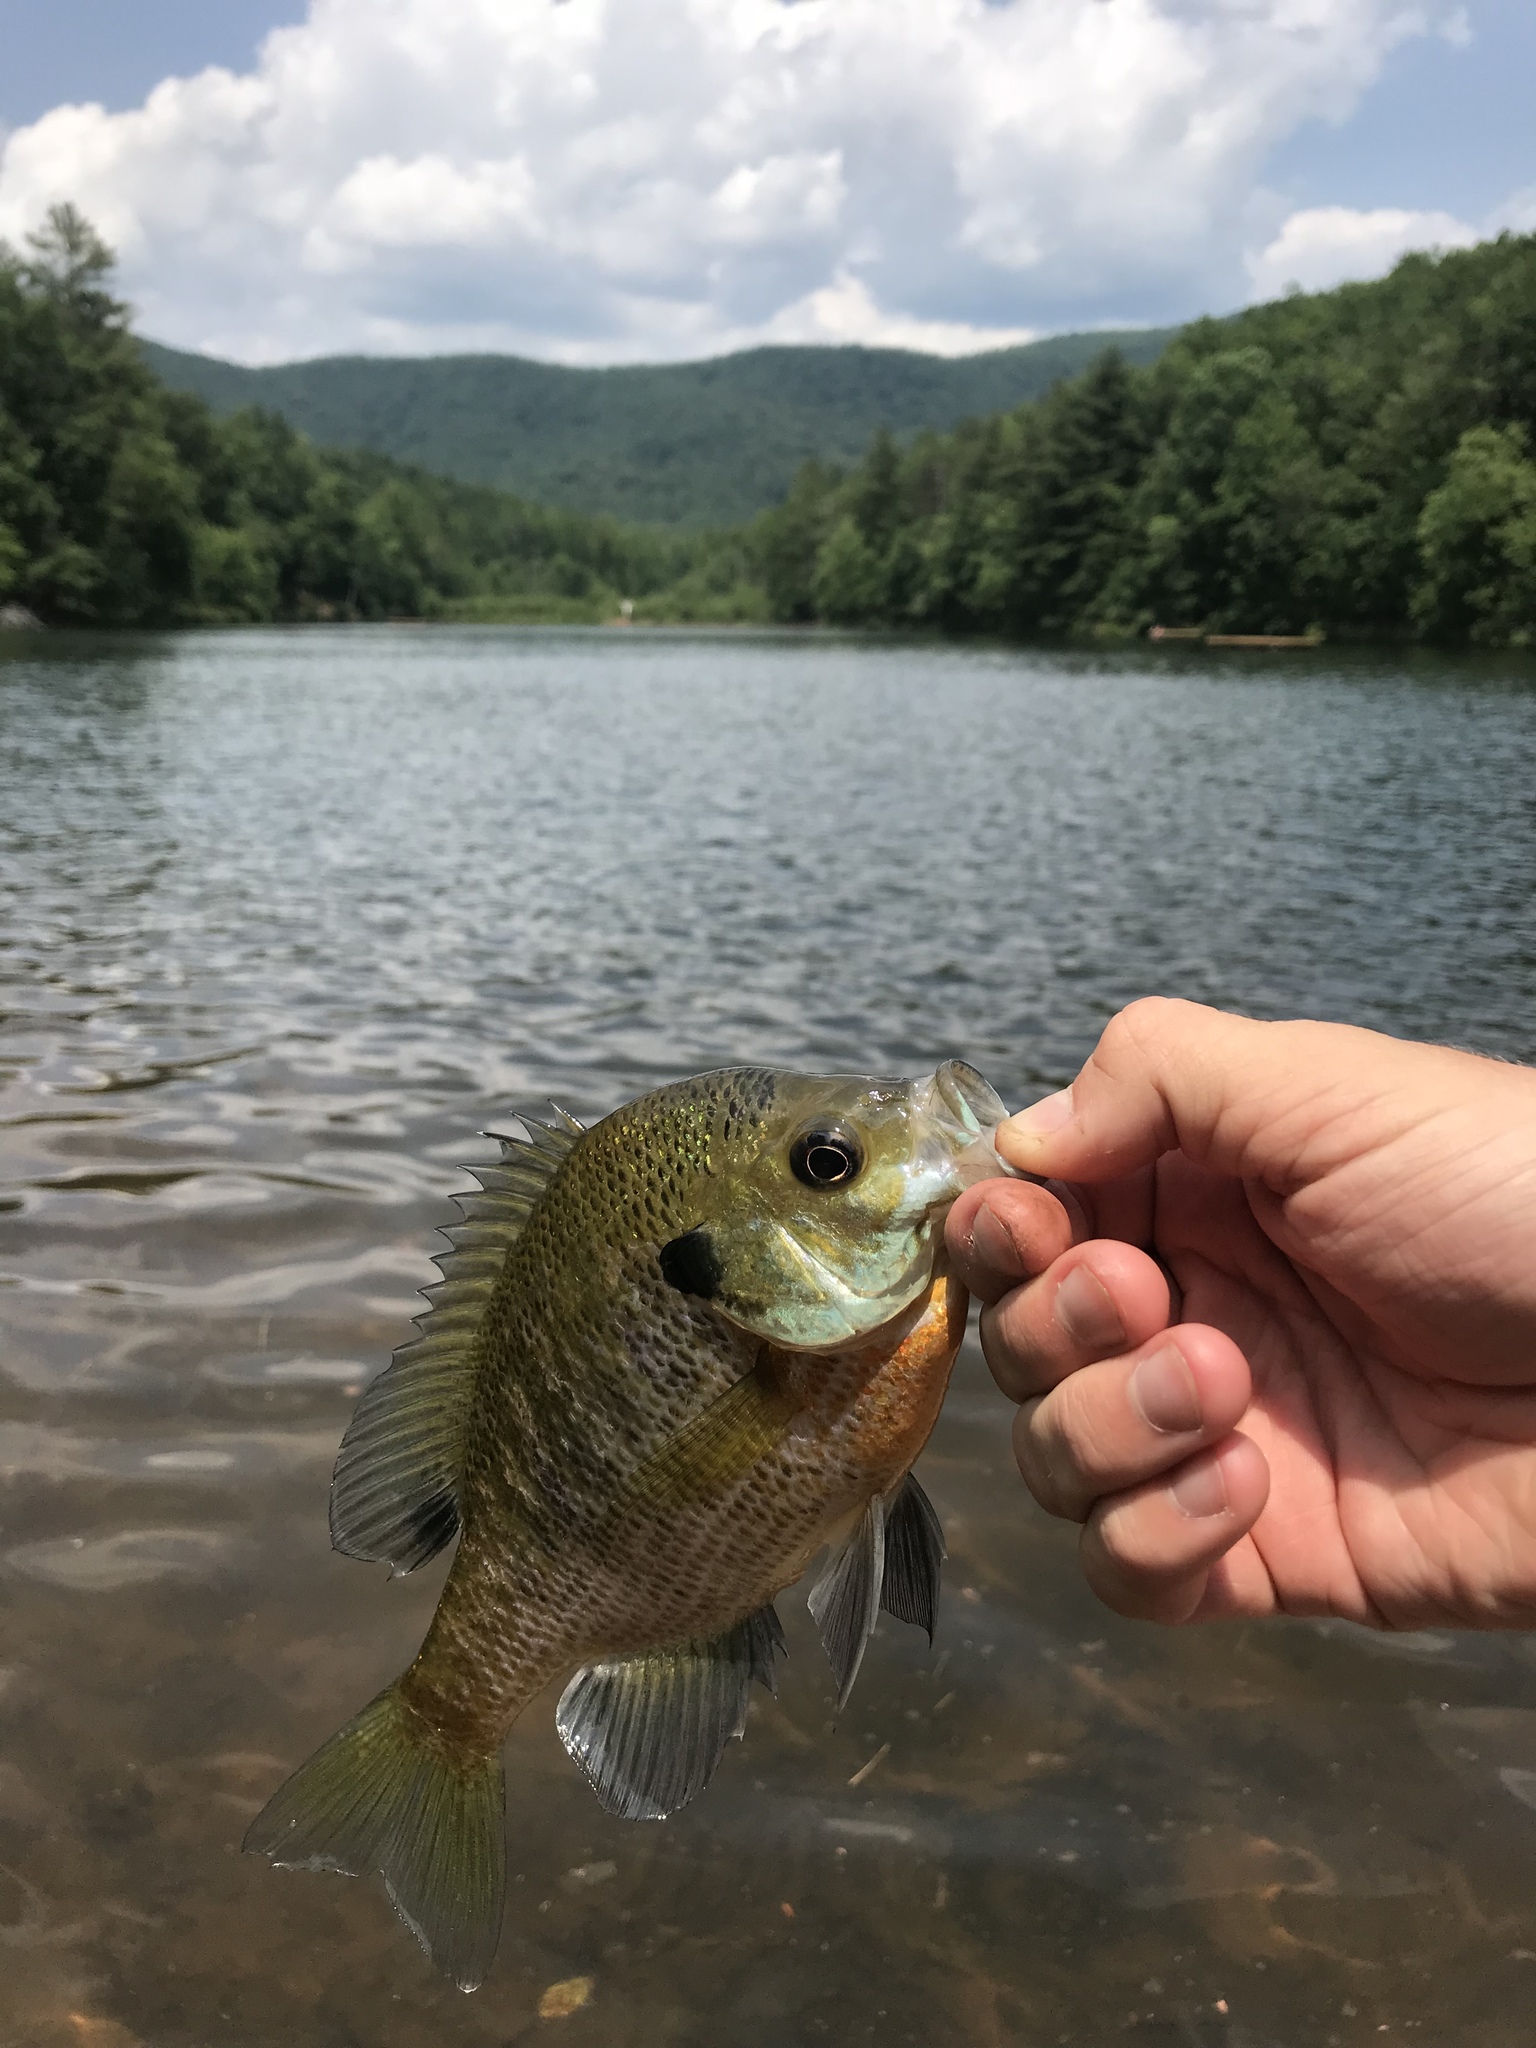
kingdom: Animalia
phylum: Chordata
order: Perciformes
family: Centrarchidae
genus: Lepomis
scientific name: Lepomis macrochirus
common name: Bluegill
